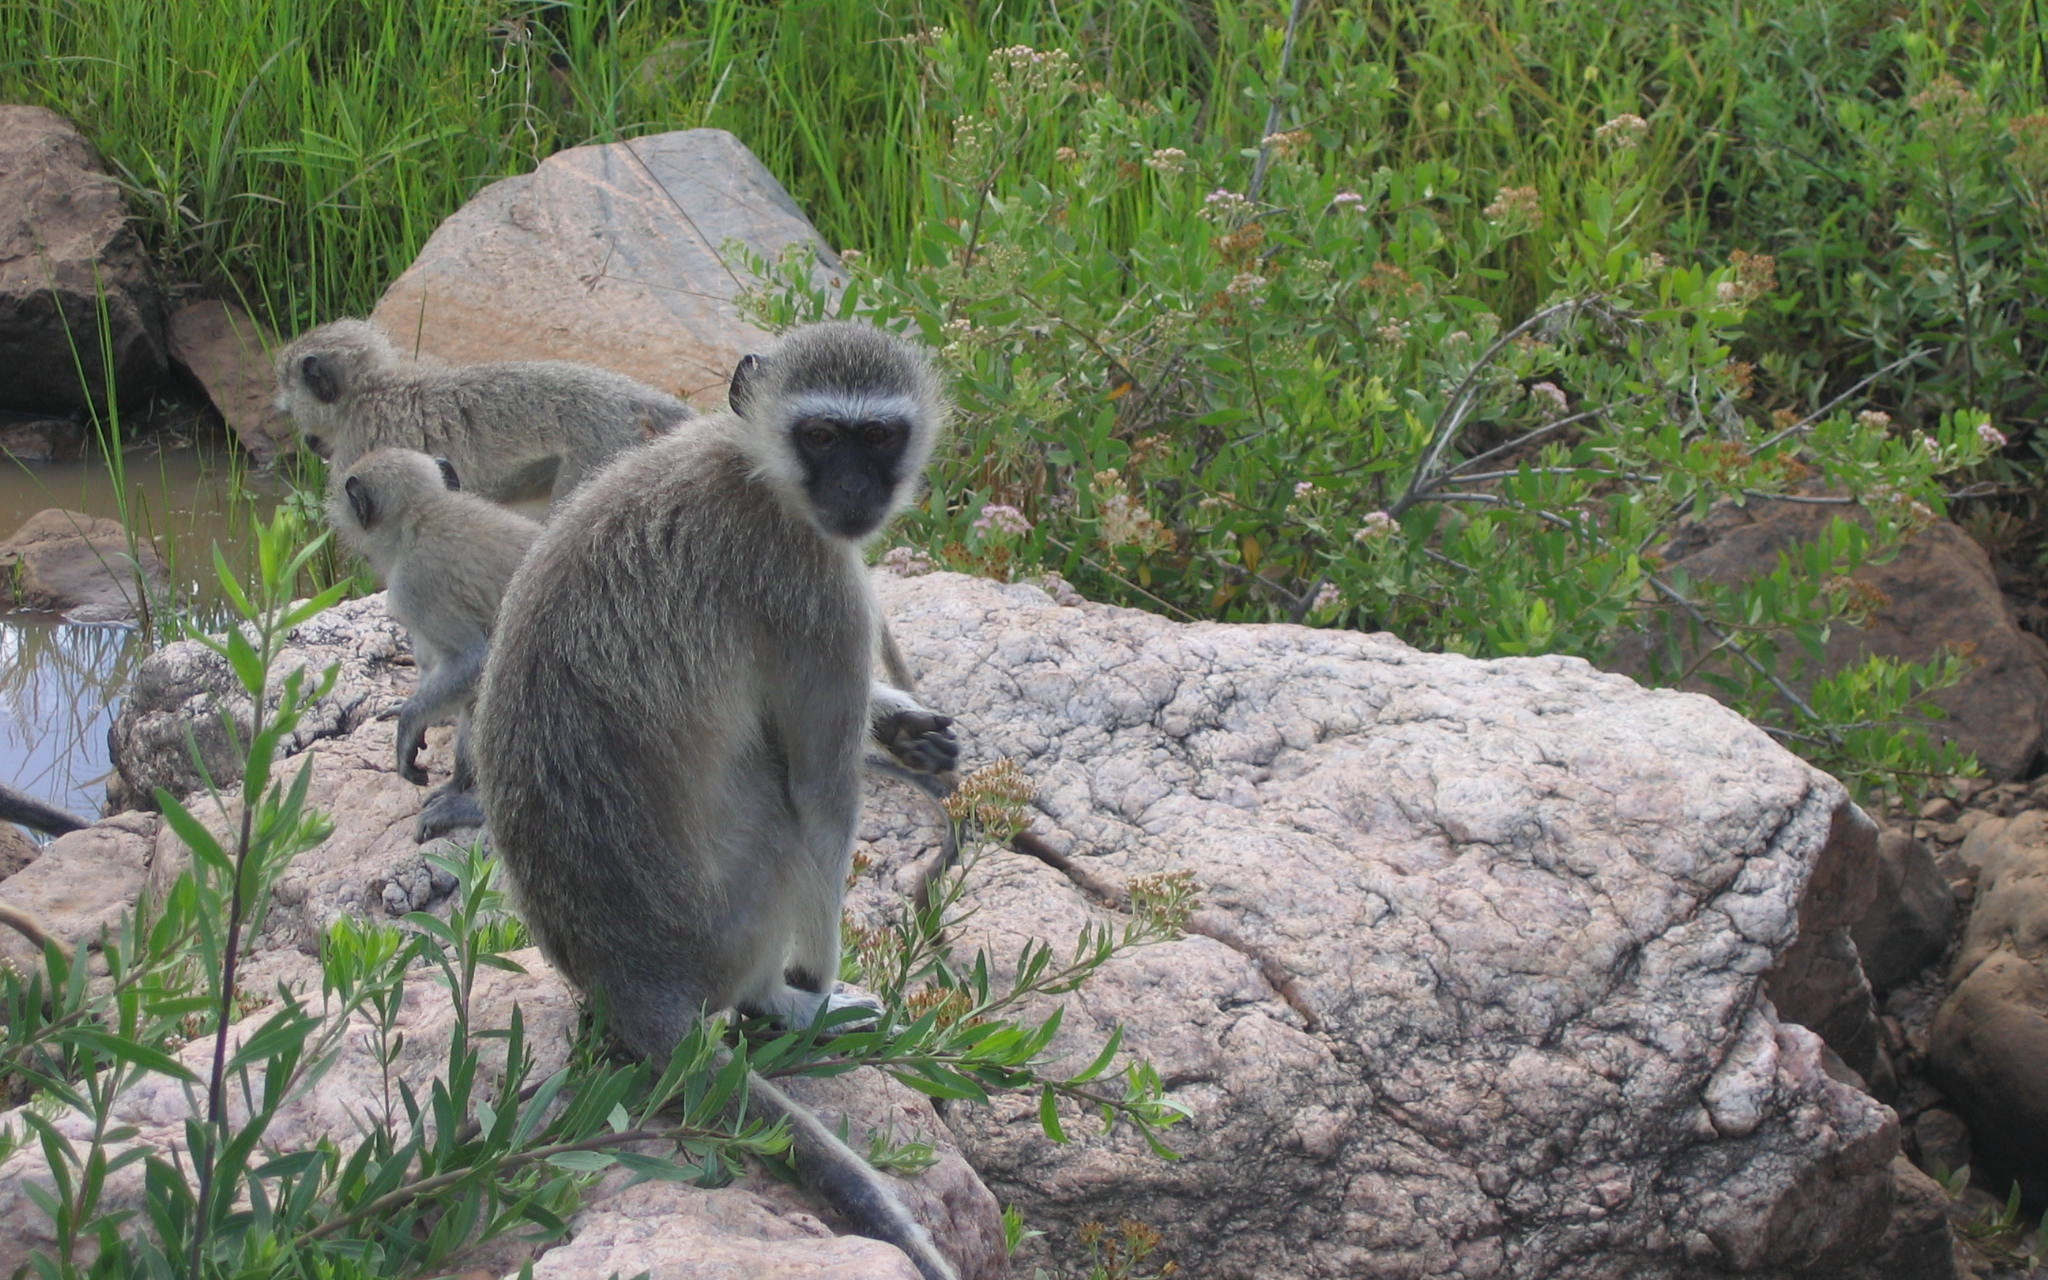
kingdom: Animalia
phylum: Chordata
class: Mammalia
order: Primates
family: Cercopithecidae
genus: Chlorocebus
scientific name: Chlorocebus pygerythrus
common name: Vervet monkey
